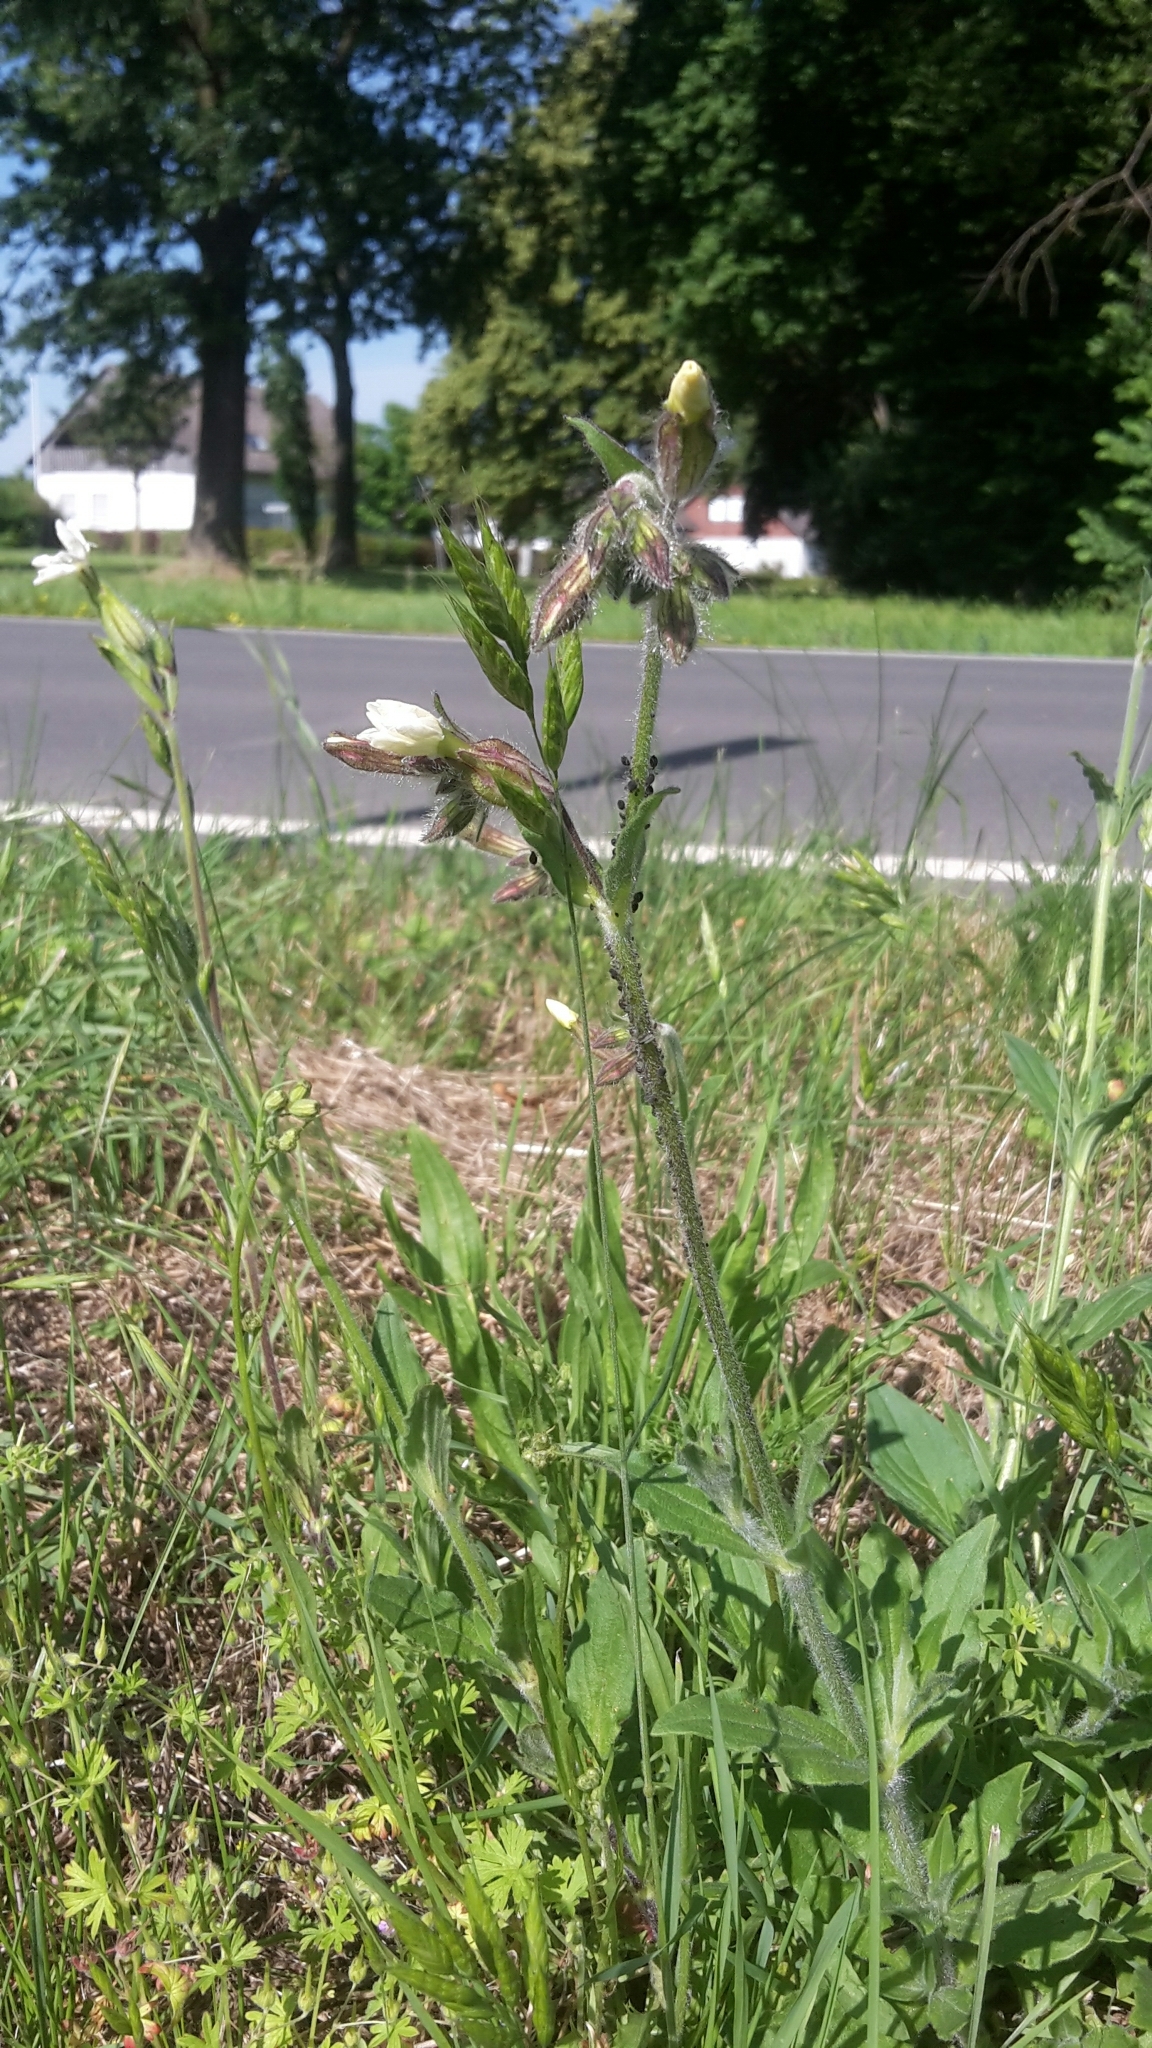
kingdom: Plantae
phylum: Tracheophyta
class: Magnoliopsida
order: Caryophyllales
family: Caryophyllaceae
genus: Silene
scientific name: Silene latifolia
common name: White campion
